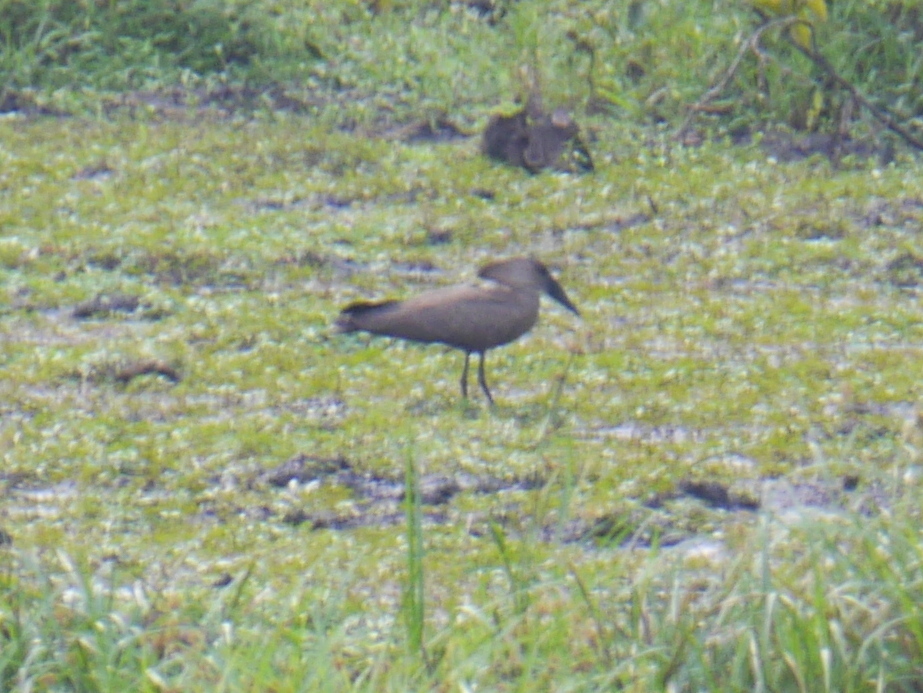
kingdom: Animalia
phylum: Chordata
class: Aves
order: Pelecaniformes
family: Scopidae
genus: Scopus
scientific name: Scopus umbretta
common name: Hamerkop
